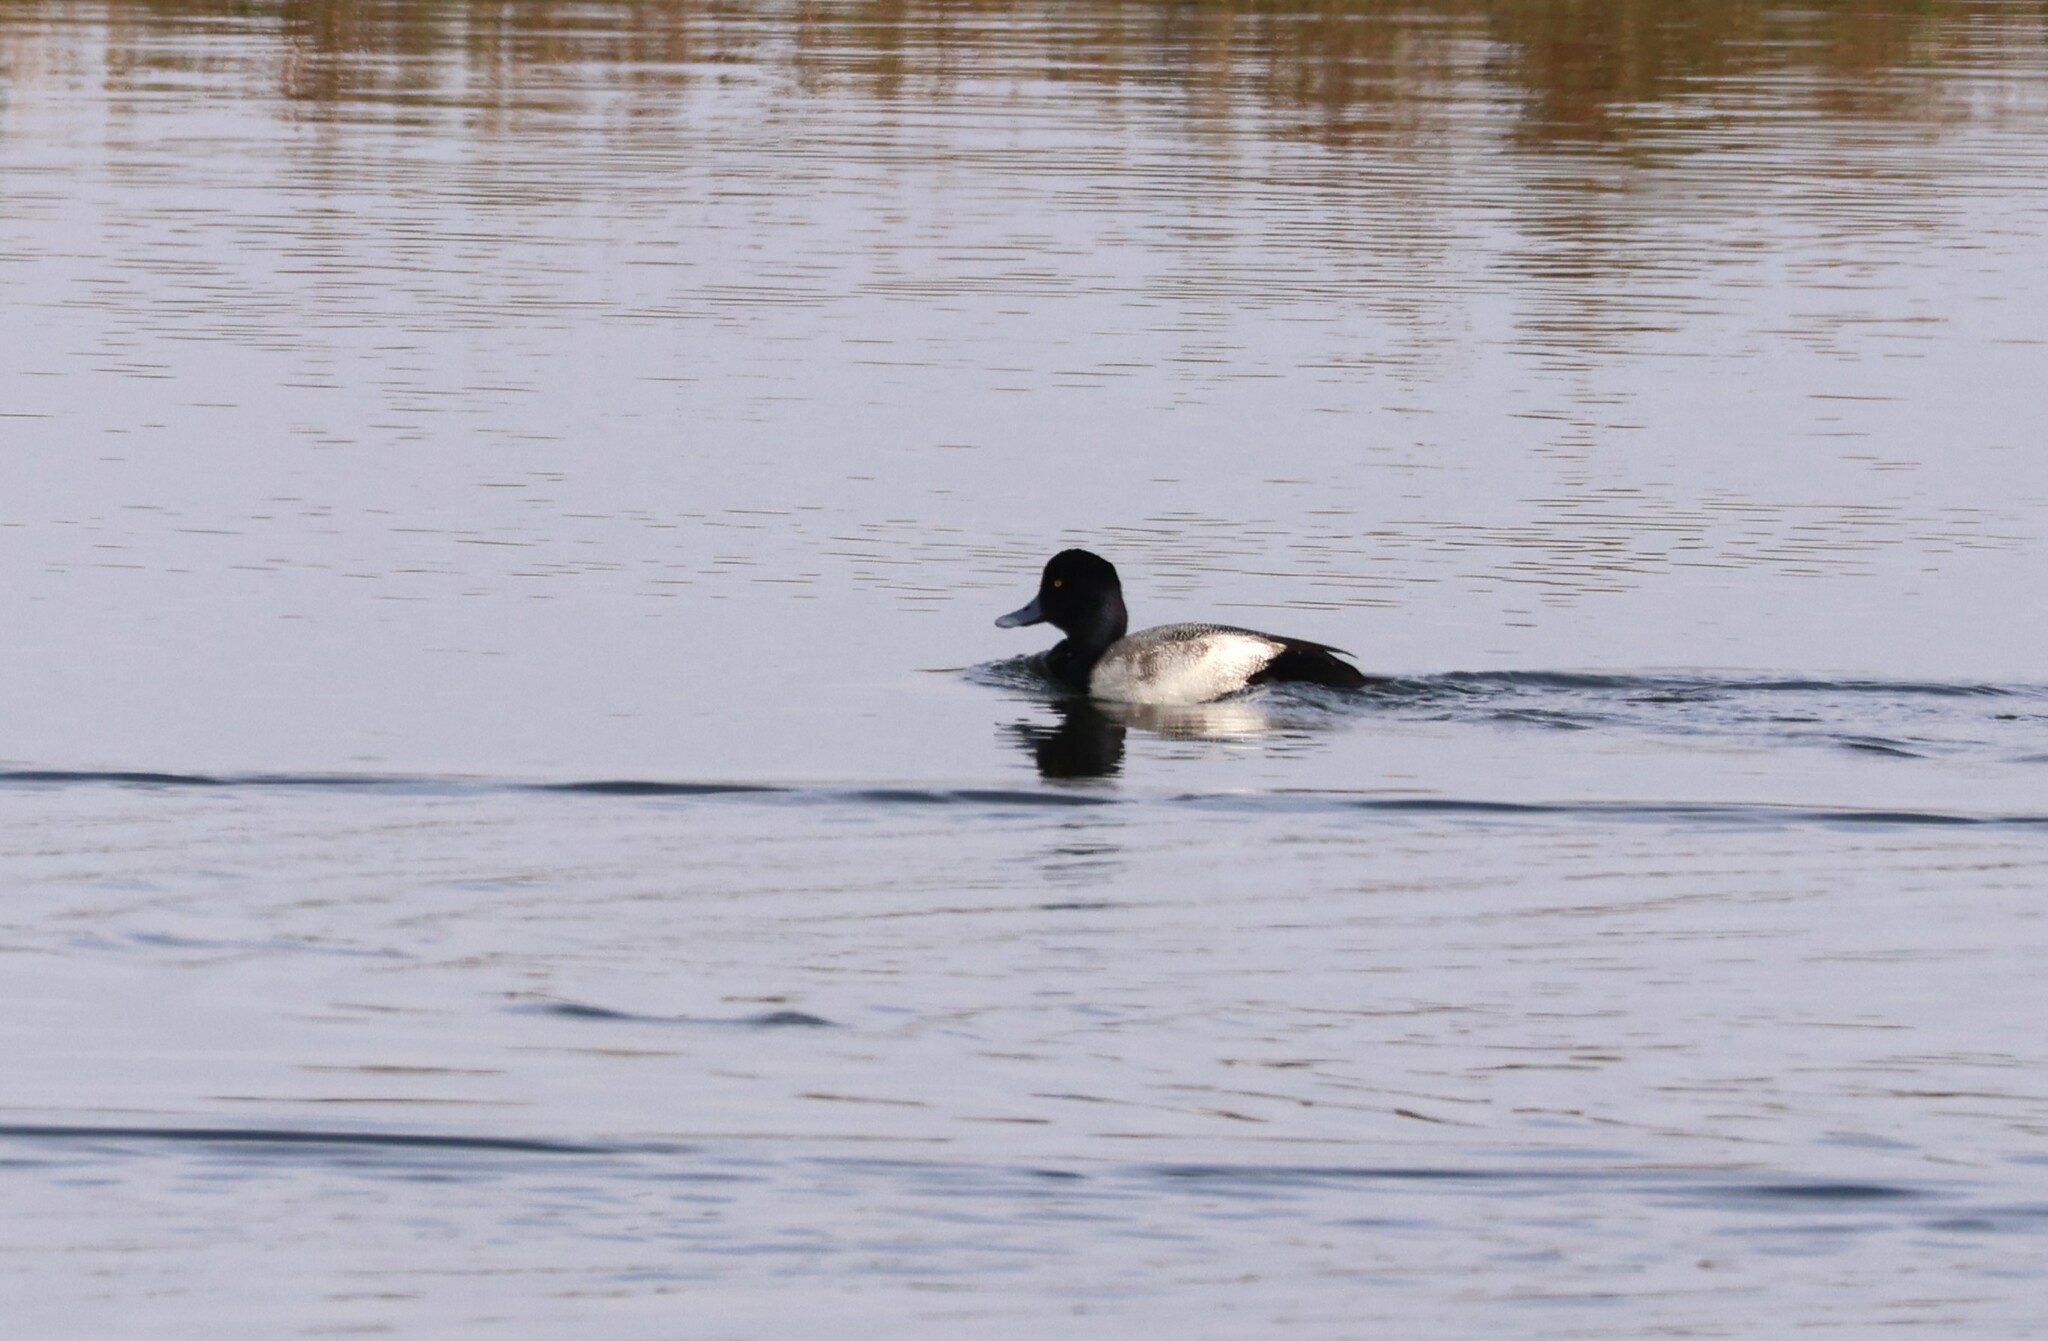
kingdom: Animalia
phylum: Chordata
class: Aves
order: Anseriformes
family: Anatidae
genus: Aythya
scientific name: Aythya affinis
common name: Lesser scaup
